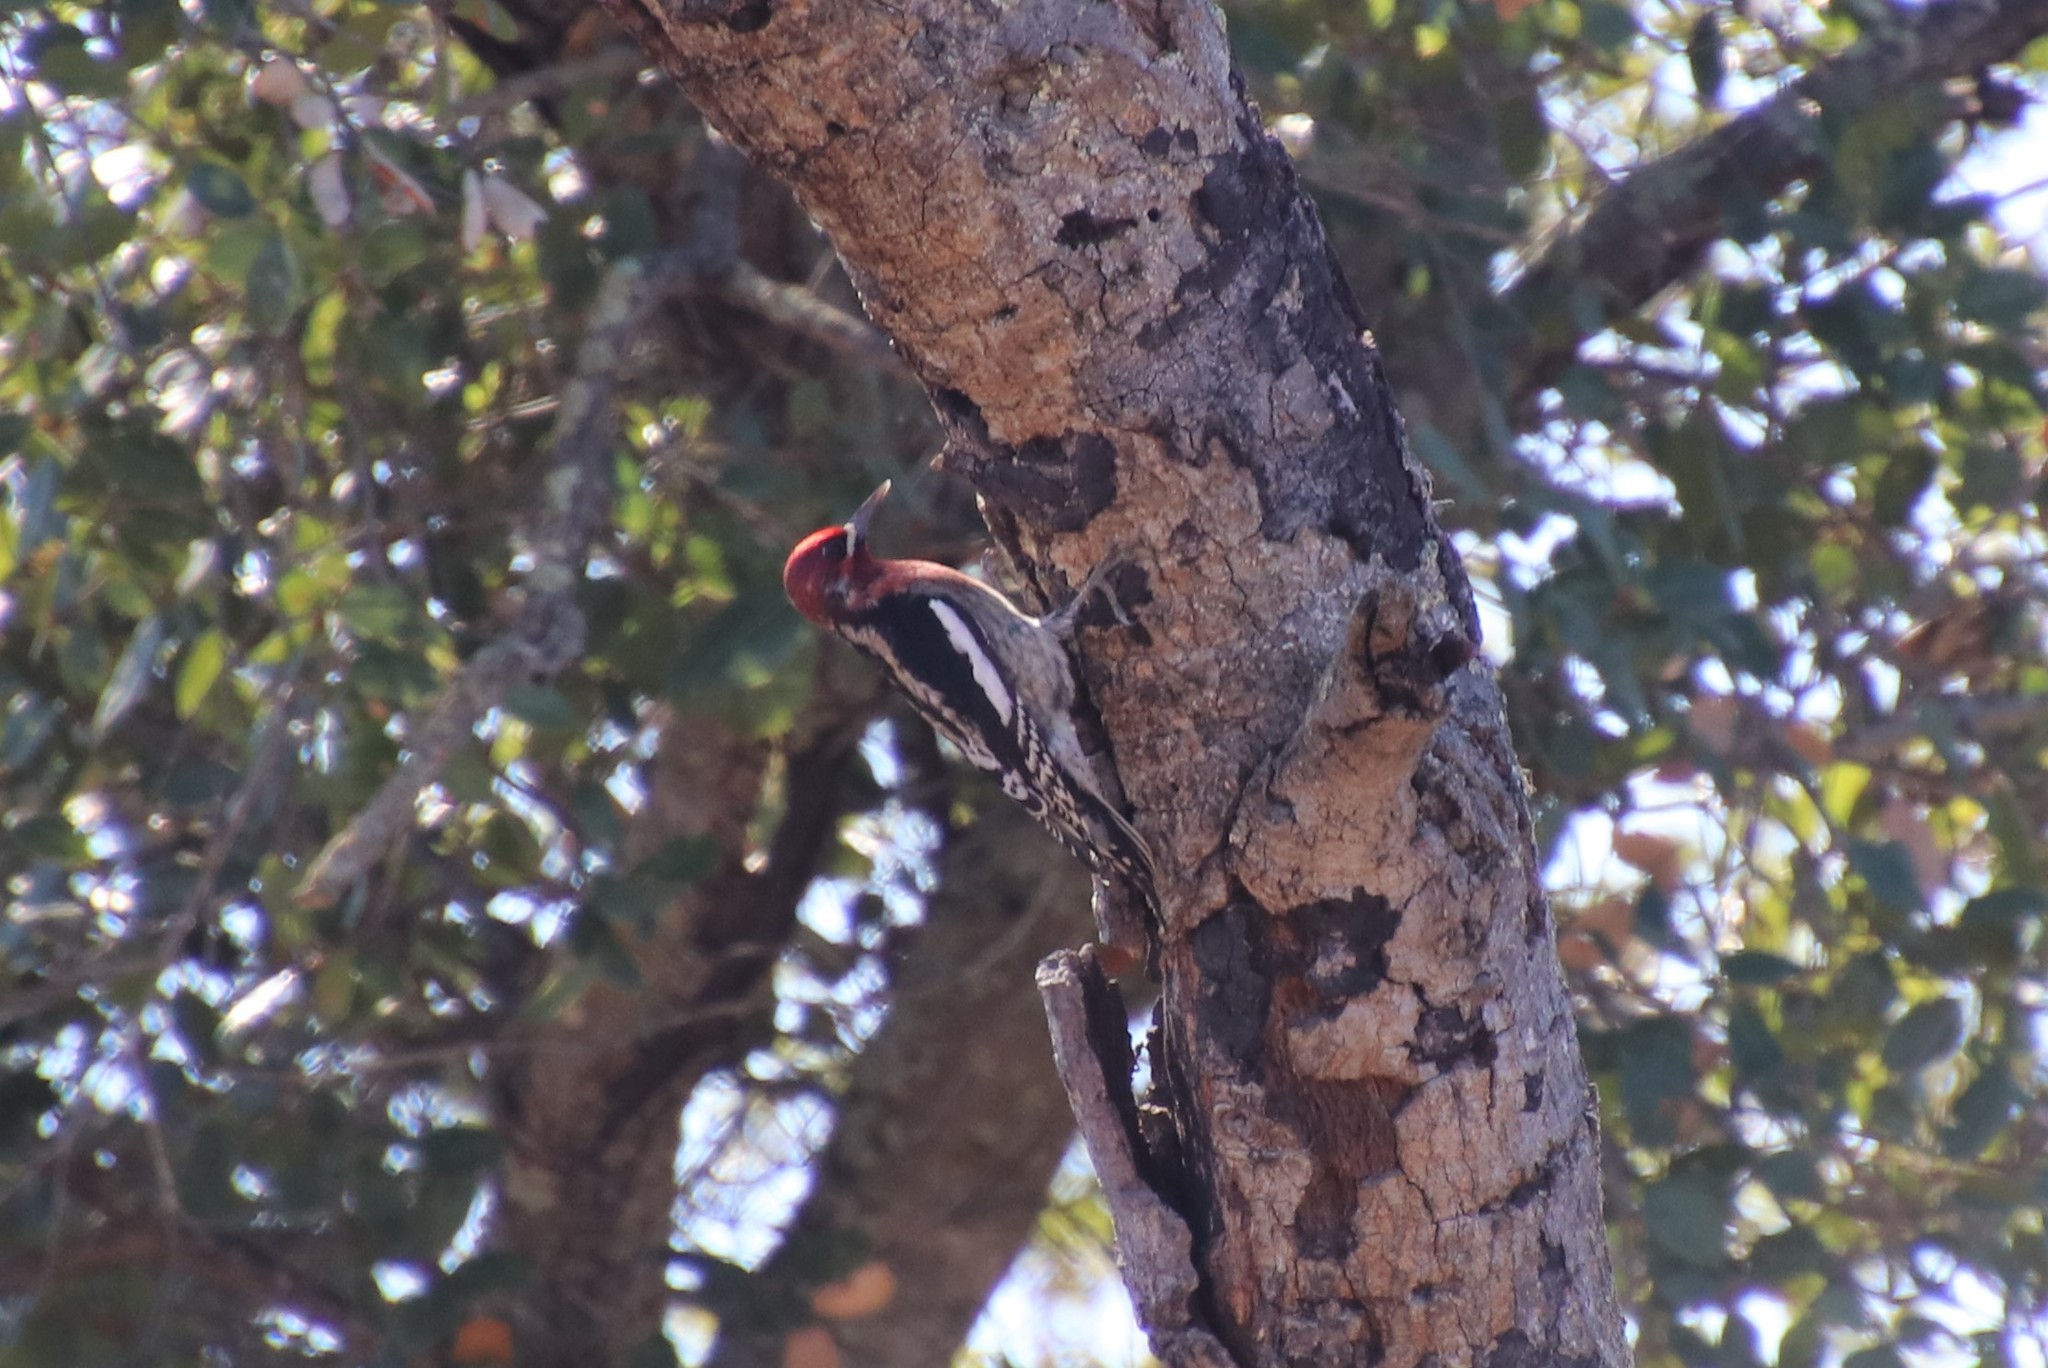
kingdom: Animalia
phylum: Chordata
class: Aves
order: Piciformes
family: Picidae
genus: Sphyrapicus
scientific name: Sphyrapicus ruber
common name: Red-breasted sapsucker
